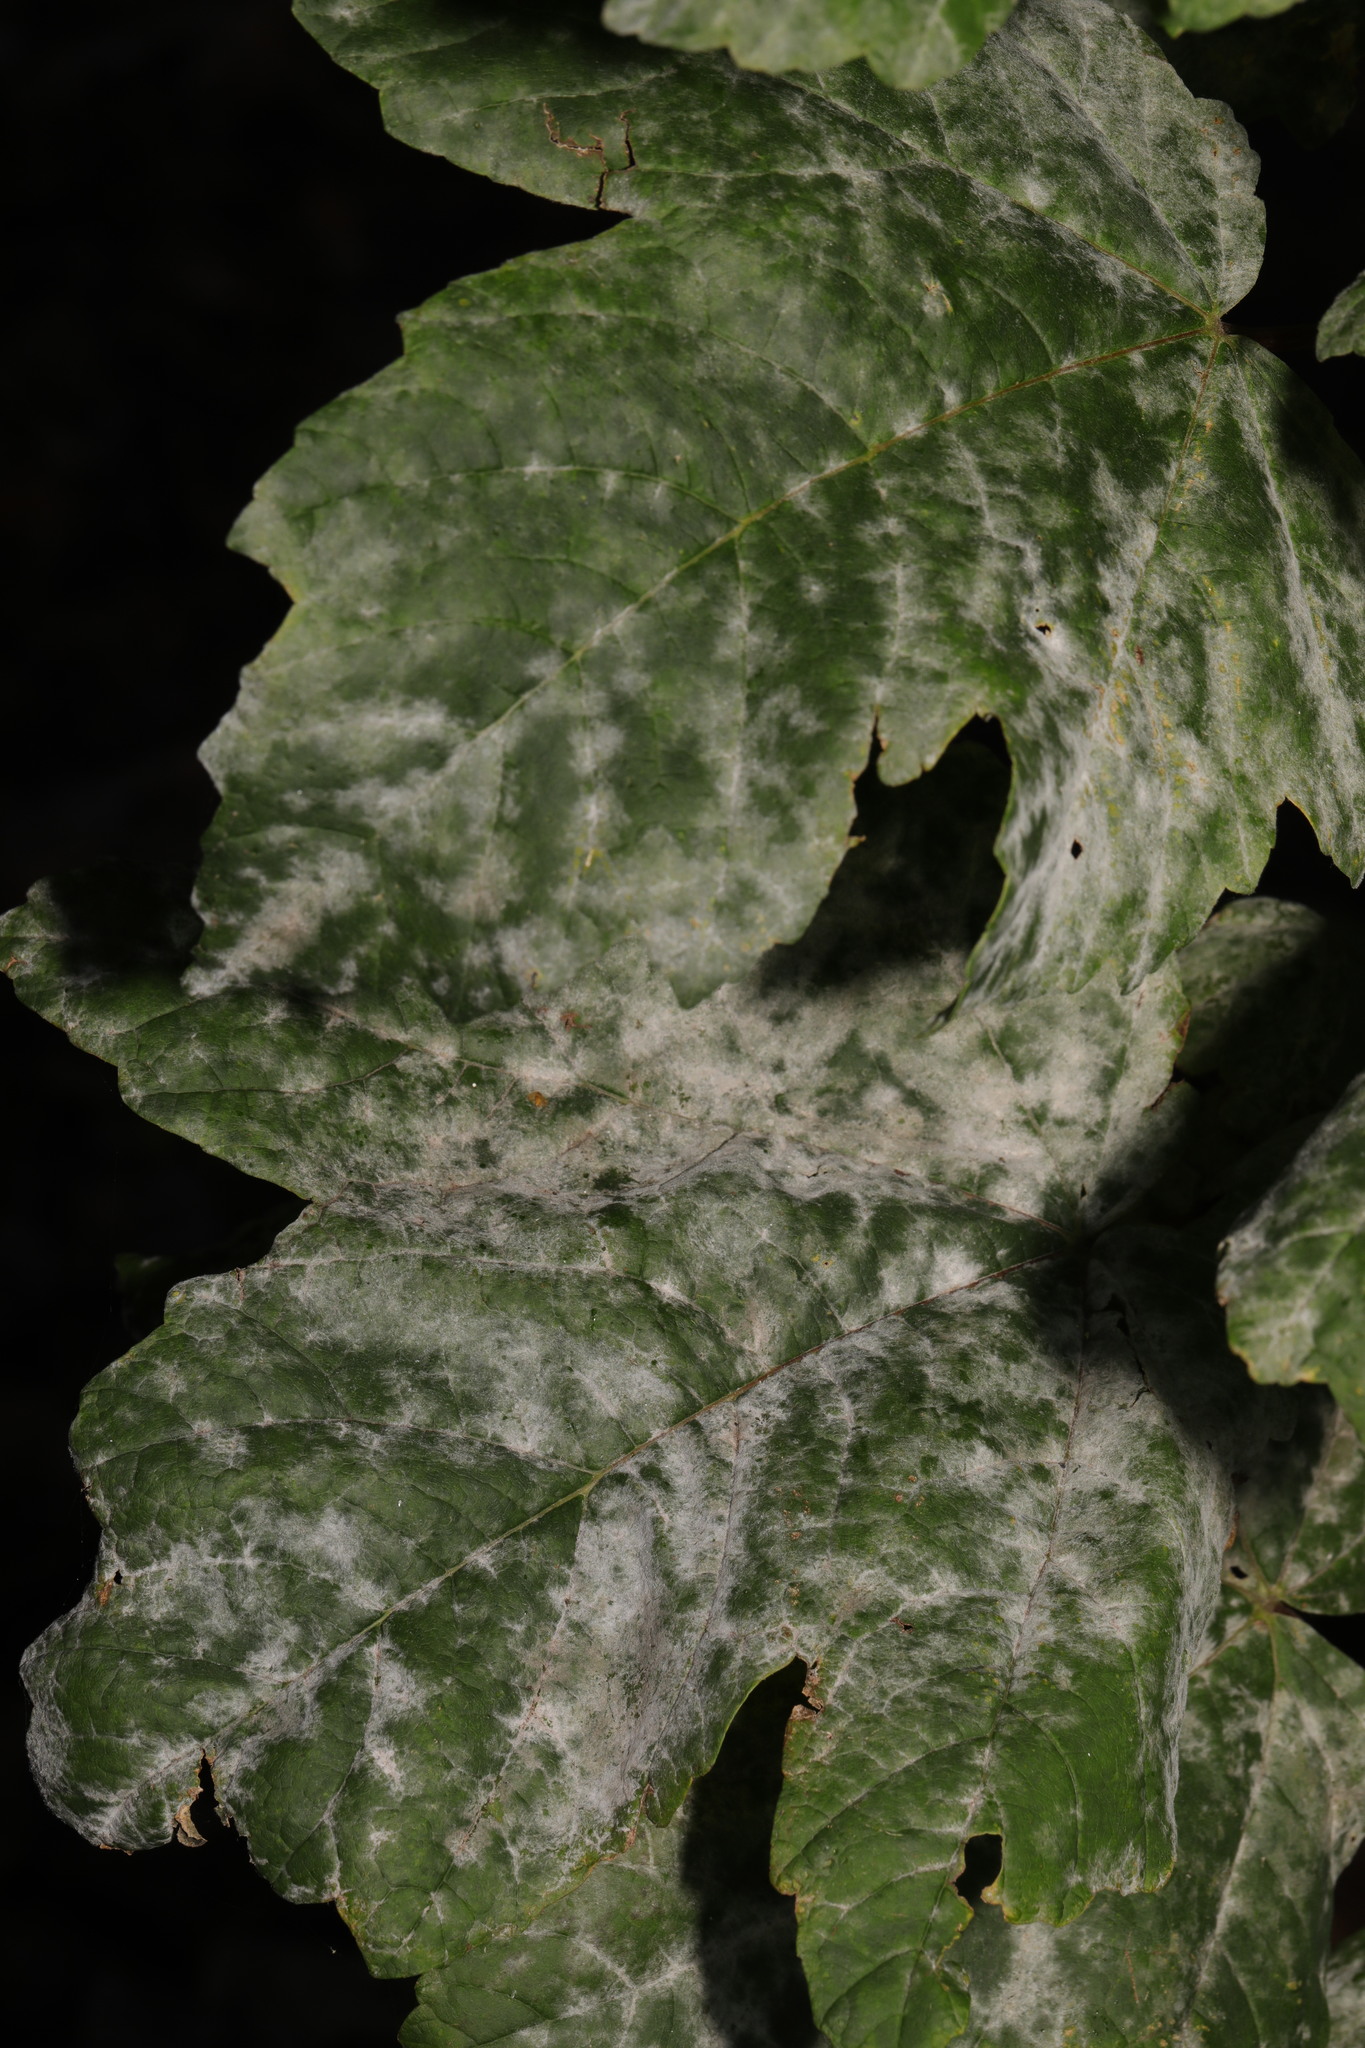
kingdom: Fungi
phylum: Ascomycota
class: Leotiomycetes
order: Helotiales
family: Erysiphaceae
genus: Sawadaea
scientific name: Sawadaea bicornis
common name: Maple mildew
